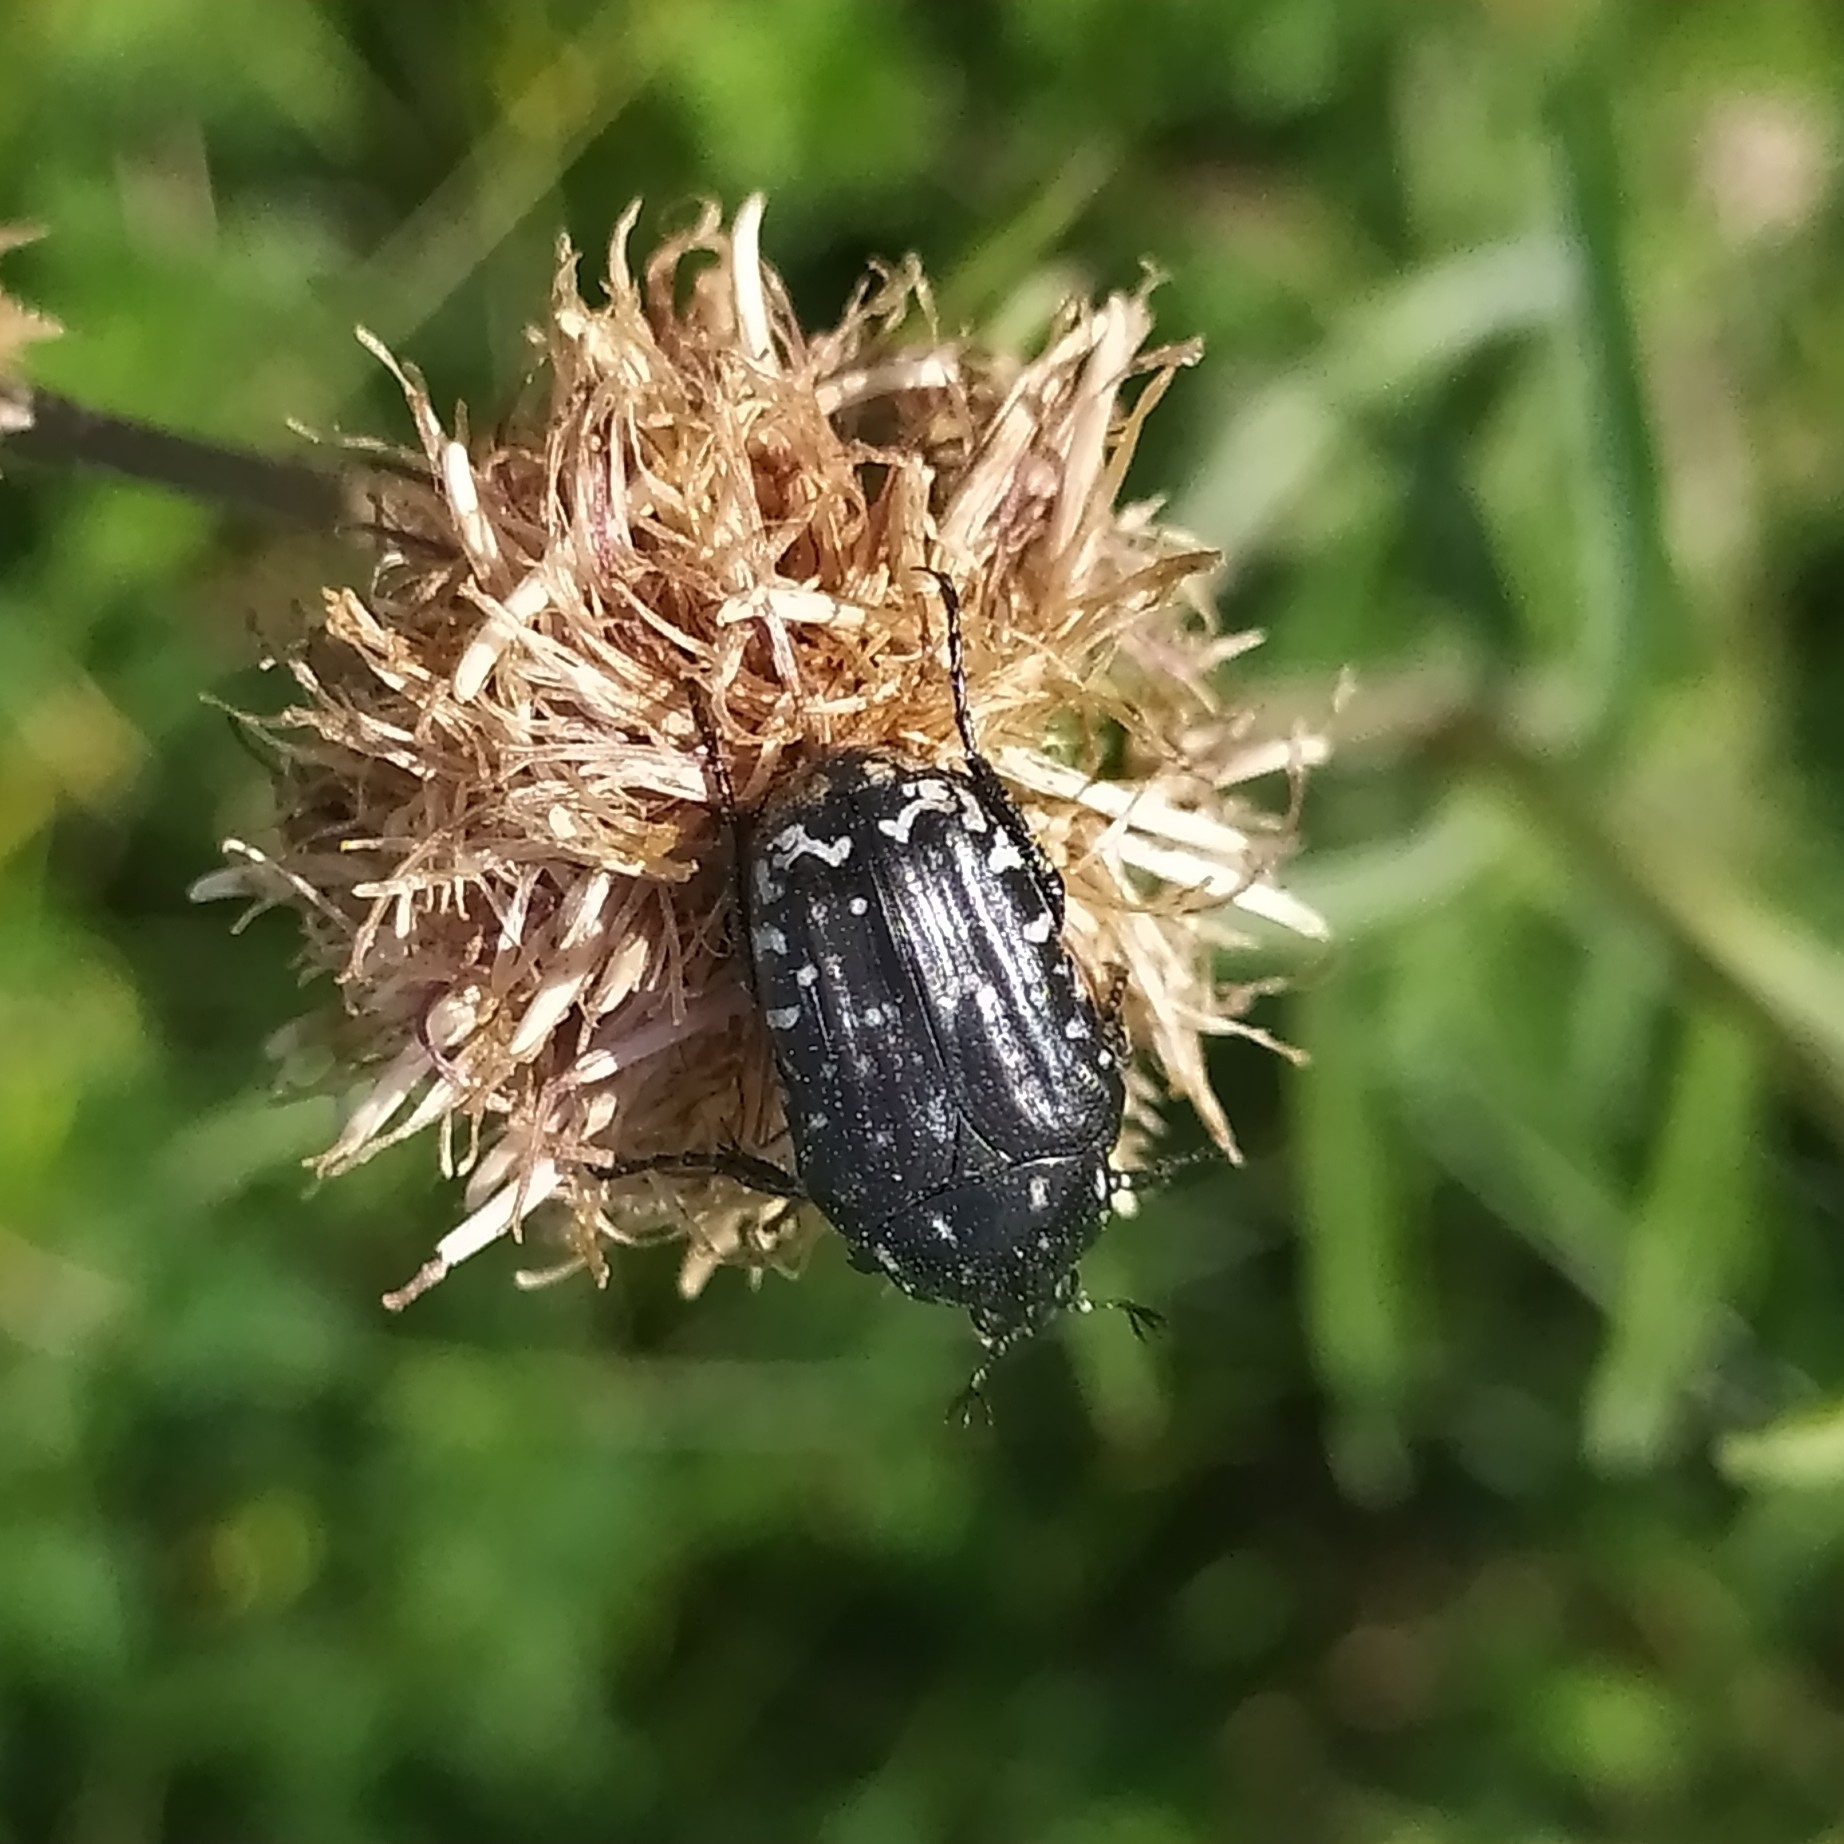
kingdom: Animalia
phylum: Arthropoda
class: Insecta
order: Coleoptera
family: Scarabaeidae
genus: Oxythyrea
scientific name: Oxythyrea funesta
